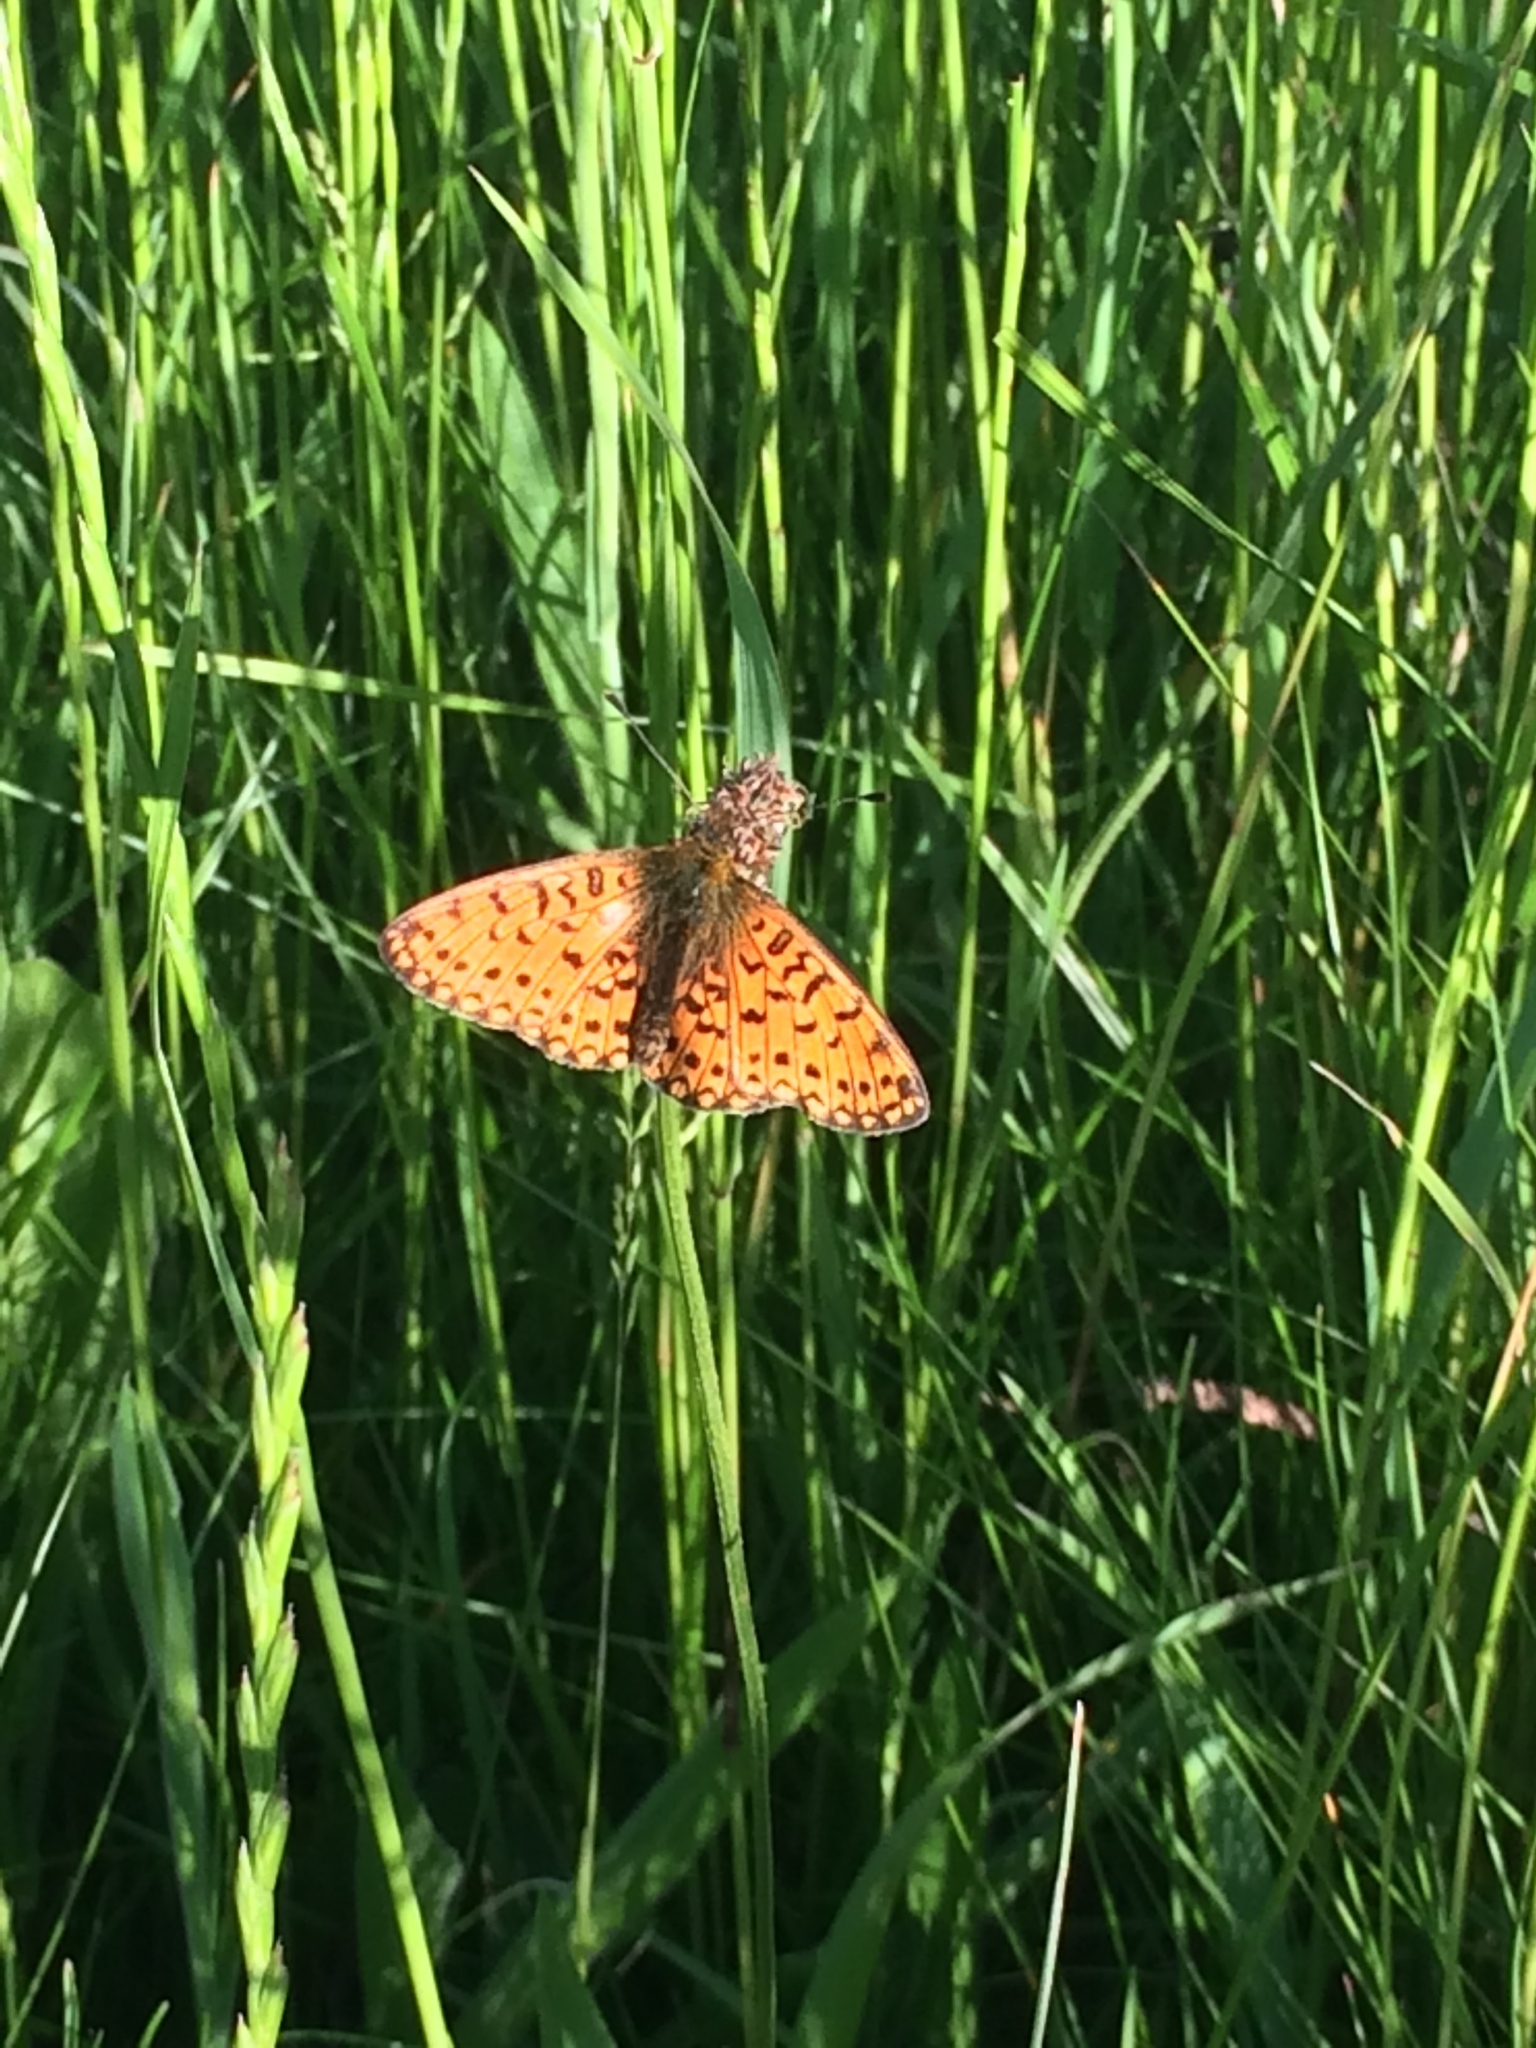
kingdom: Animalia
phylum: Arthropoda
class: Insecta
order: Lepidoptera
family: Nymphalidae
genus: Boloria
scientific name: Boloria selene
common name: Small pearl-bordered fritillary
